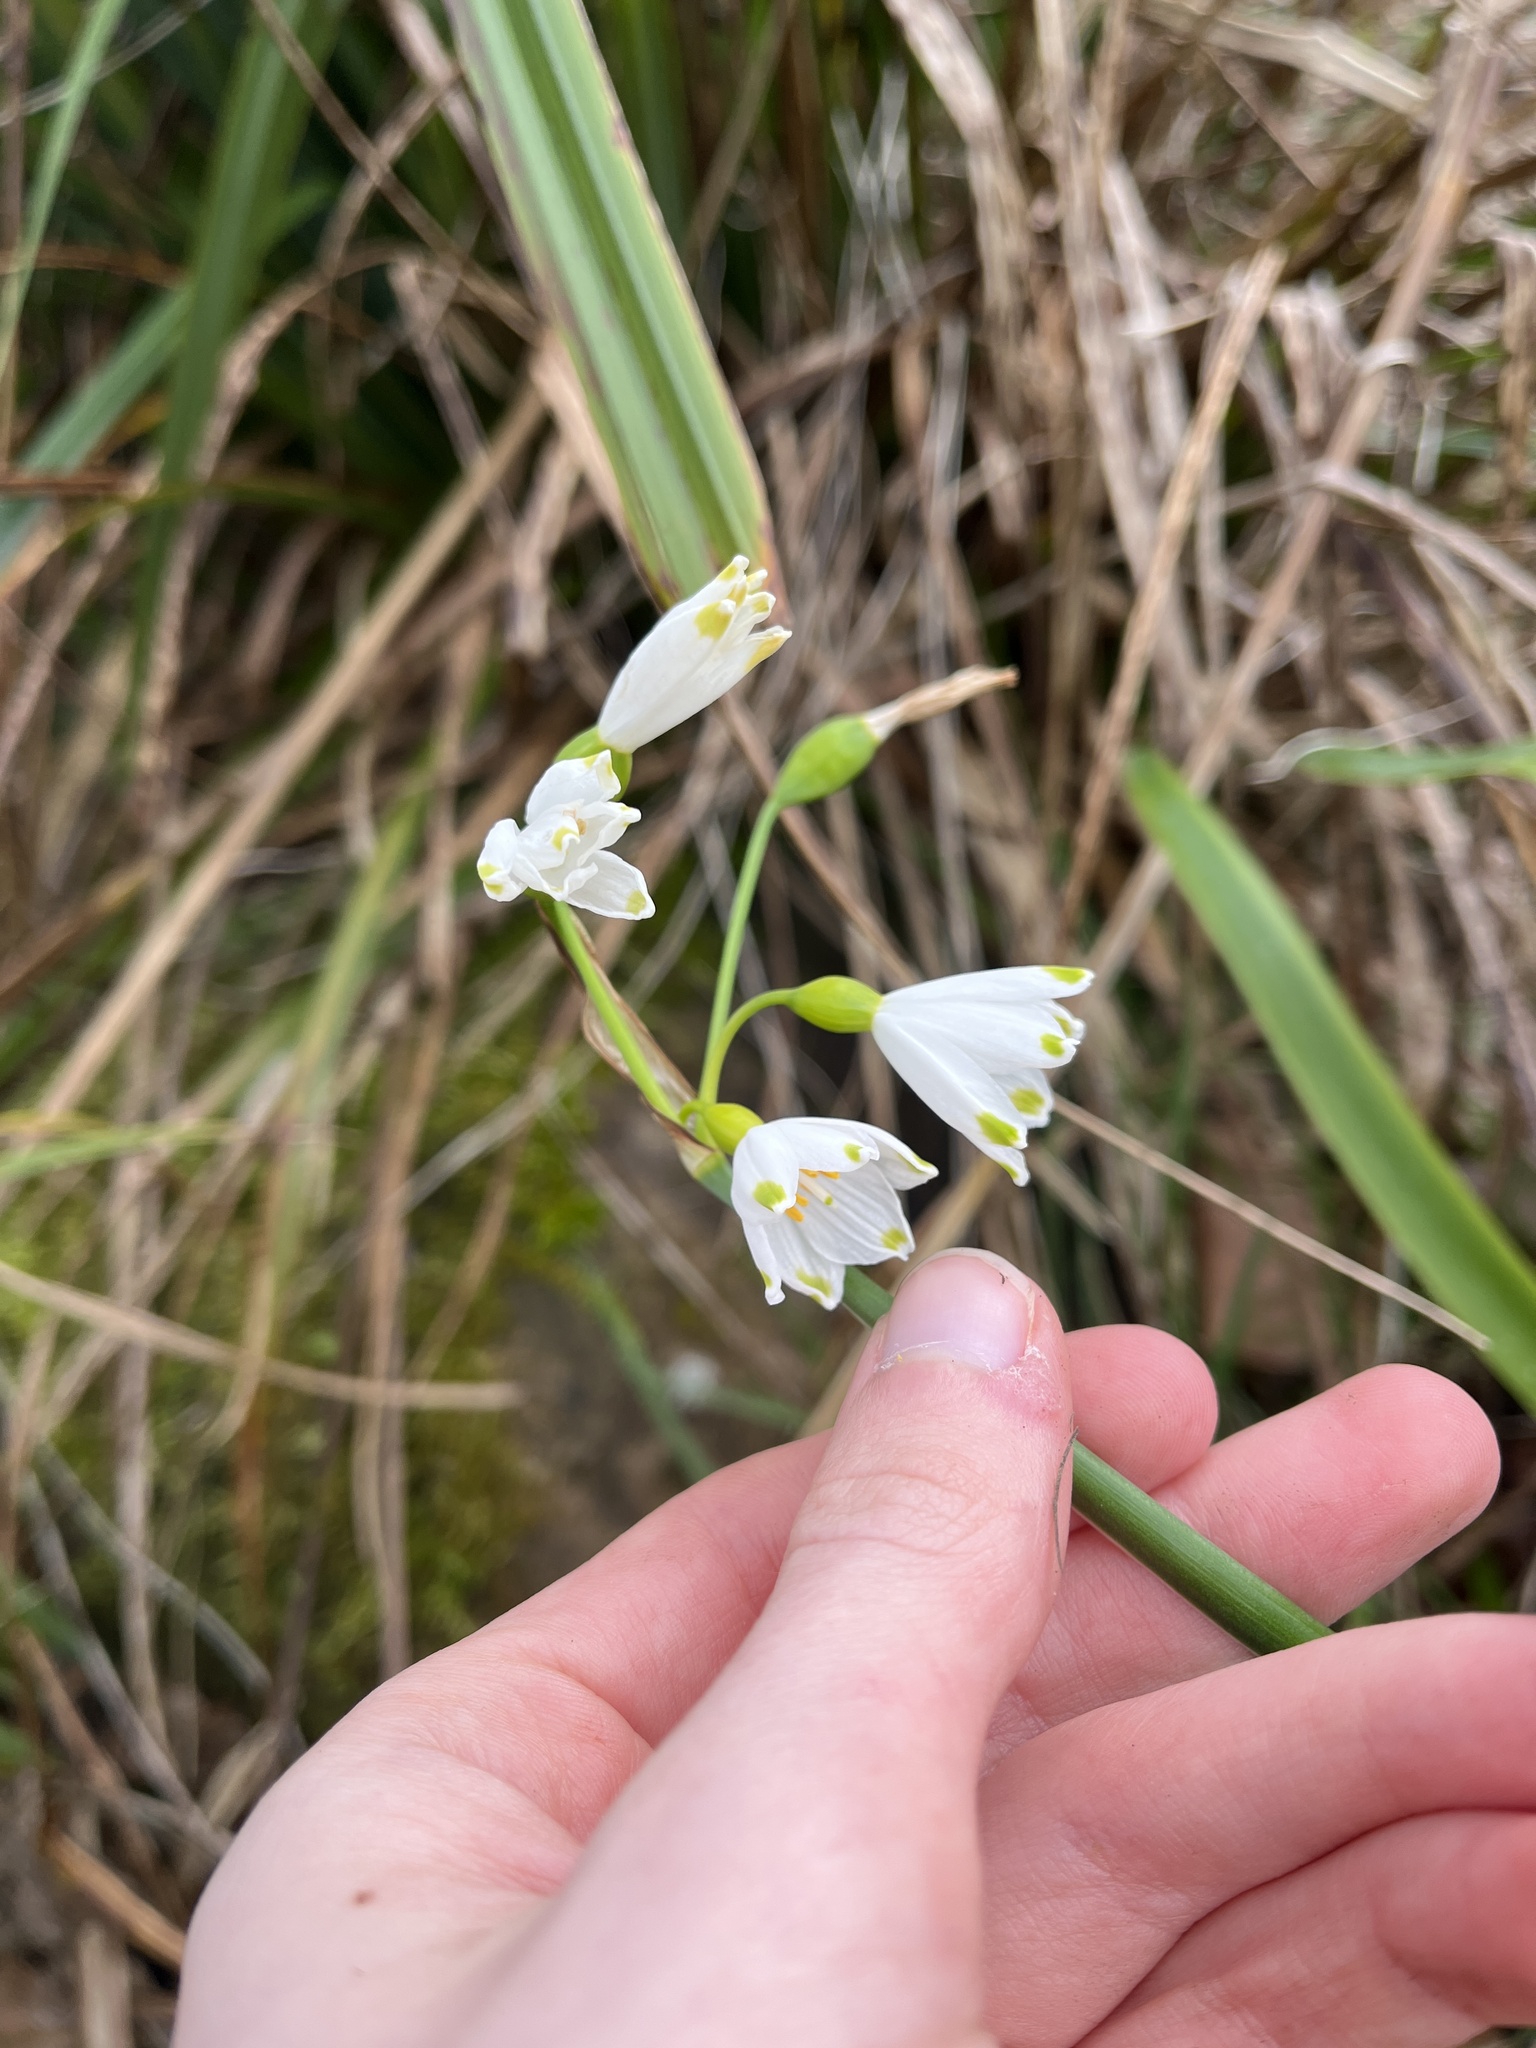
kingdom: Plantae
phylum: Tracheophyta
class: Liliopsida
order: Asparagales
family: Amaryllidaceae
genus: Leucojum
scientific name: Leucojum aestivum
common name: Summer snowflake
